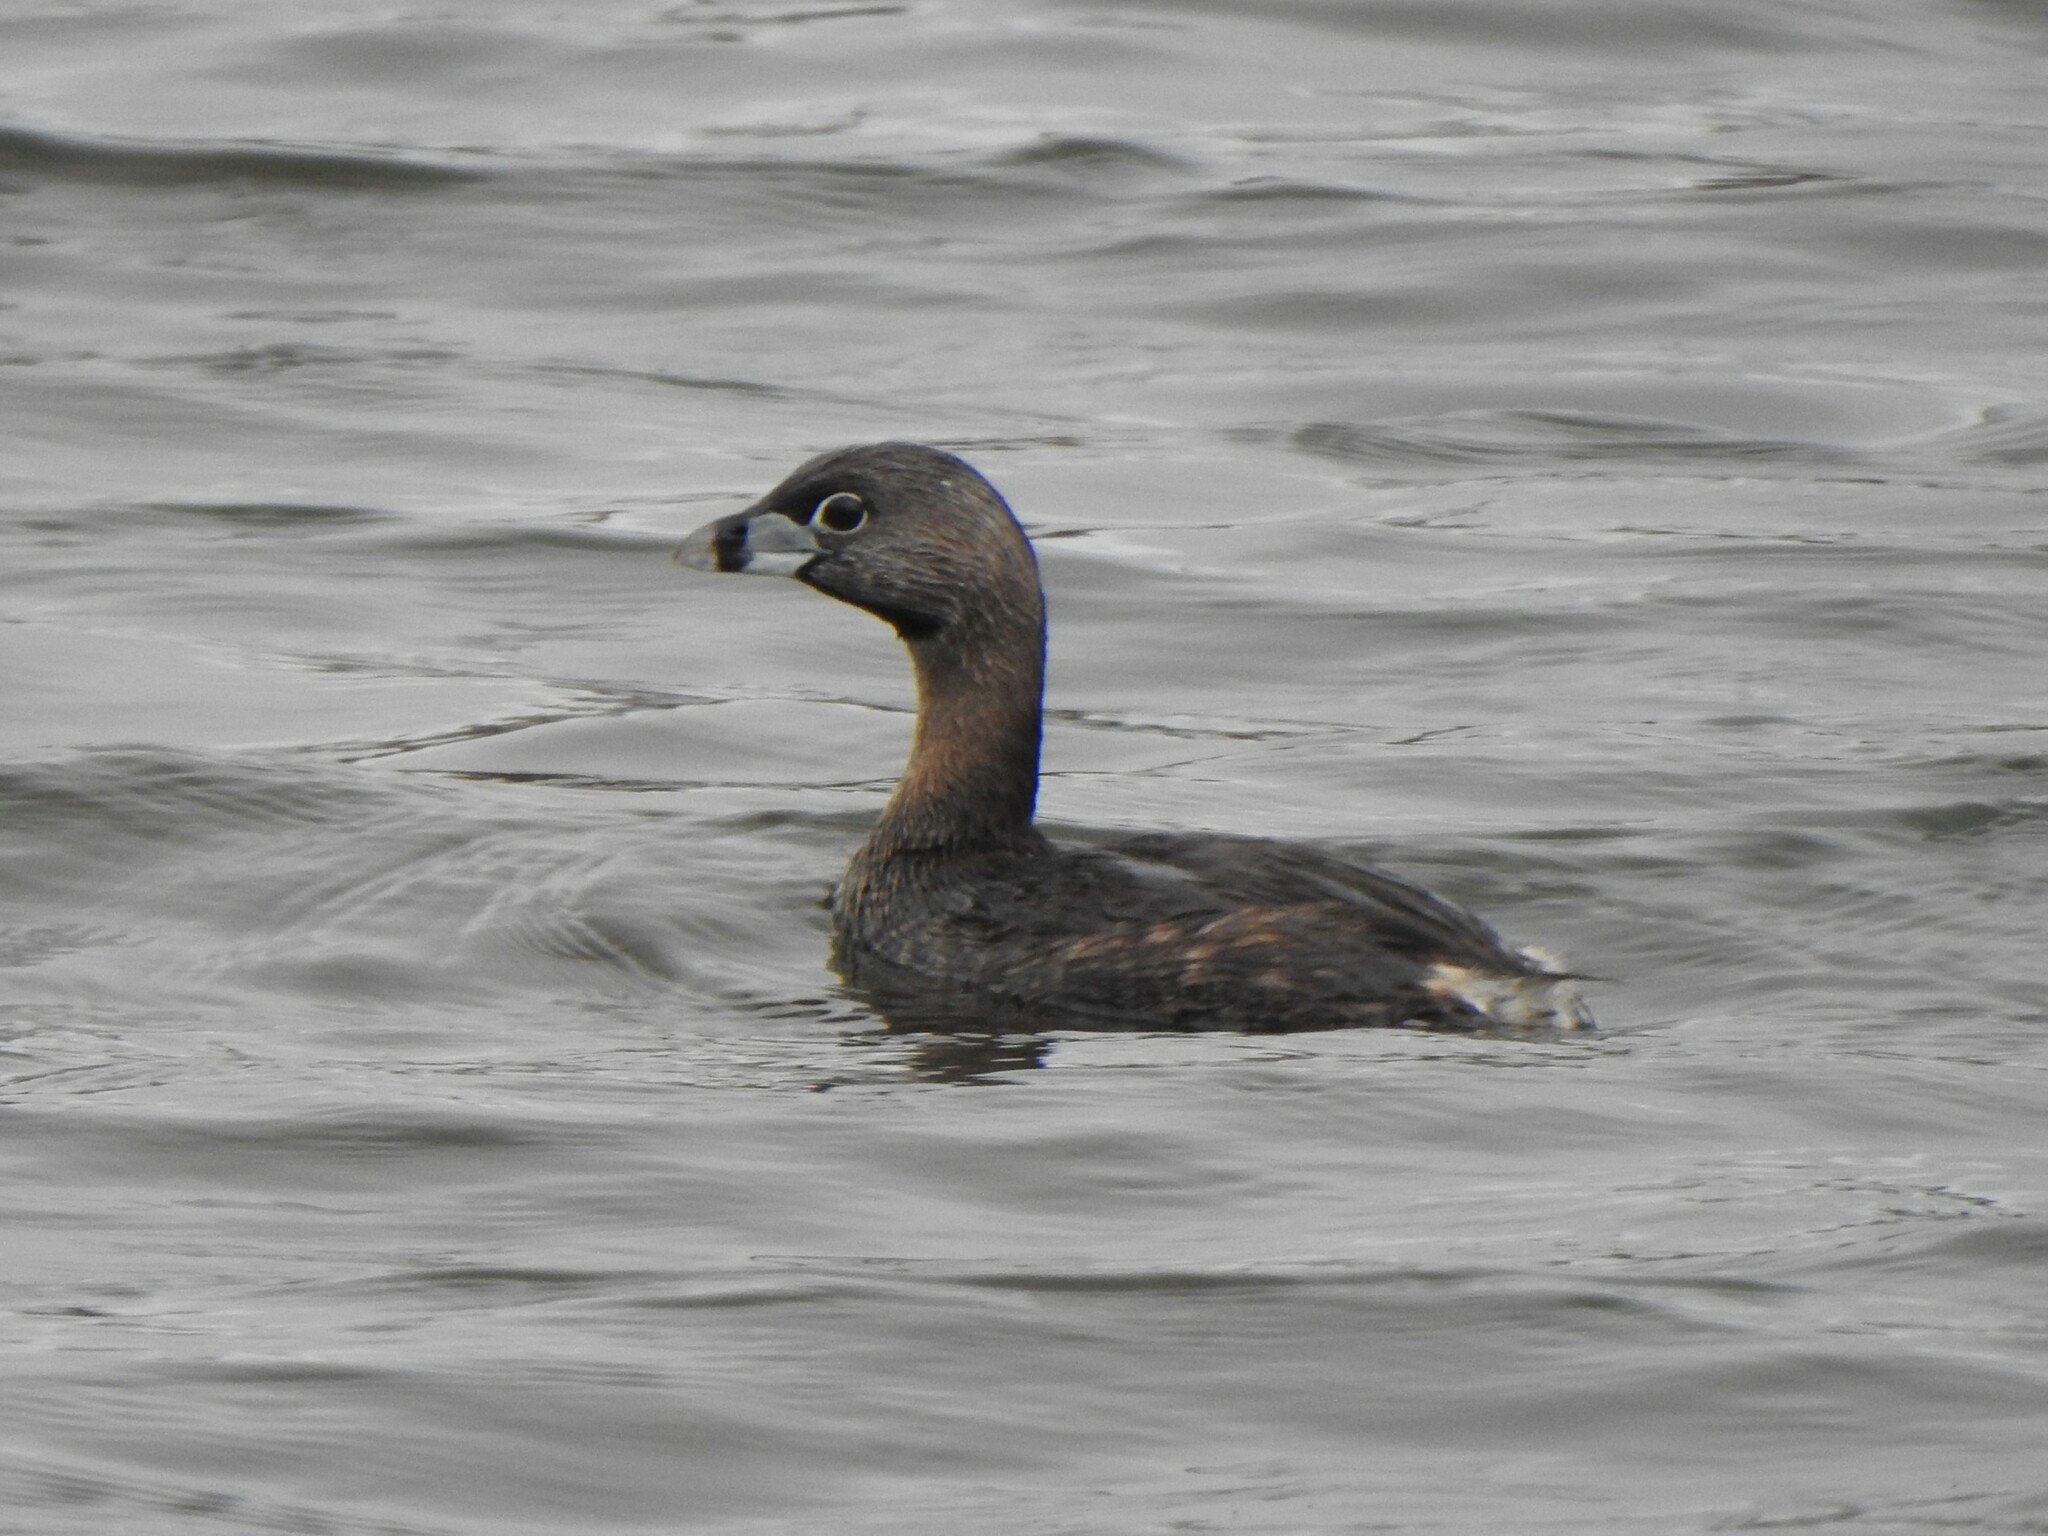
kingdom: Animalia
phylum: Chordata
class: Aves
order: Podicipediformes
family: Podicipedidae
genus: Podilymbus
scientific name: Podilymbus podiceps
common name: Pied-billed grebe
